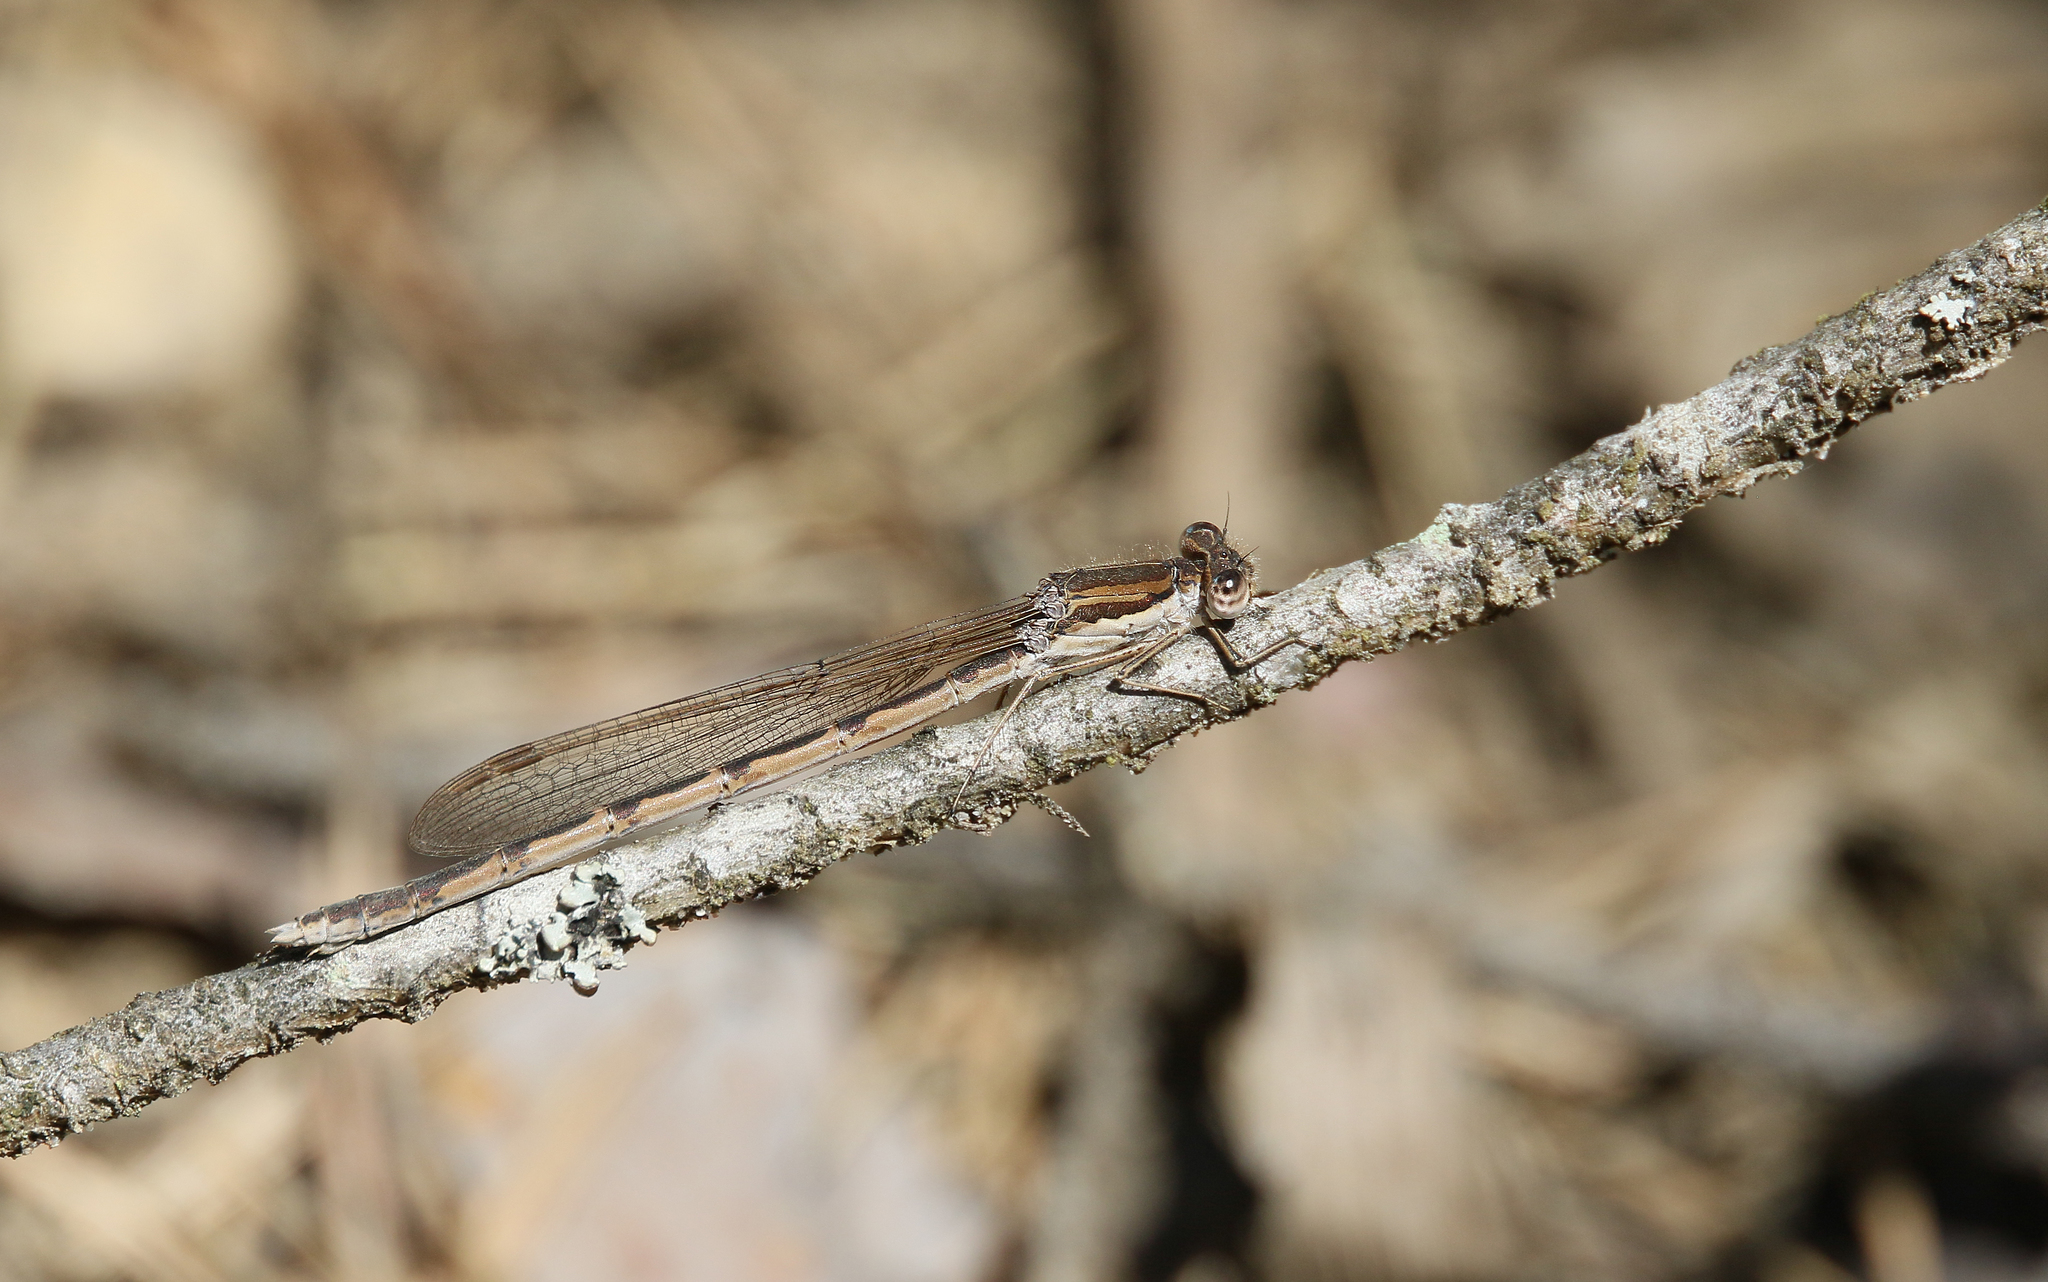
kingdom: Animalia
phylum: Arthropoda
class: Insecta
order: Odonata
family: Lestidae
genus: Sympecma
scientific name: Sympecma fusca
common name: Common winter damsel
